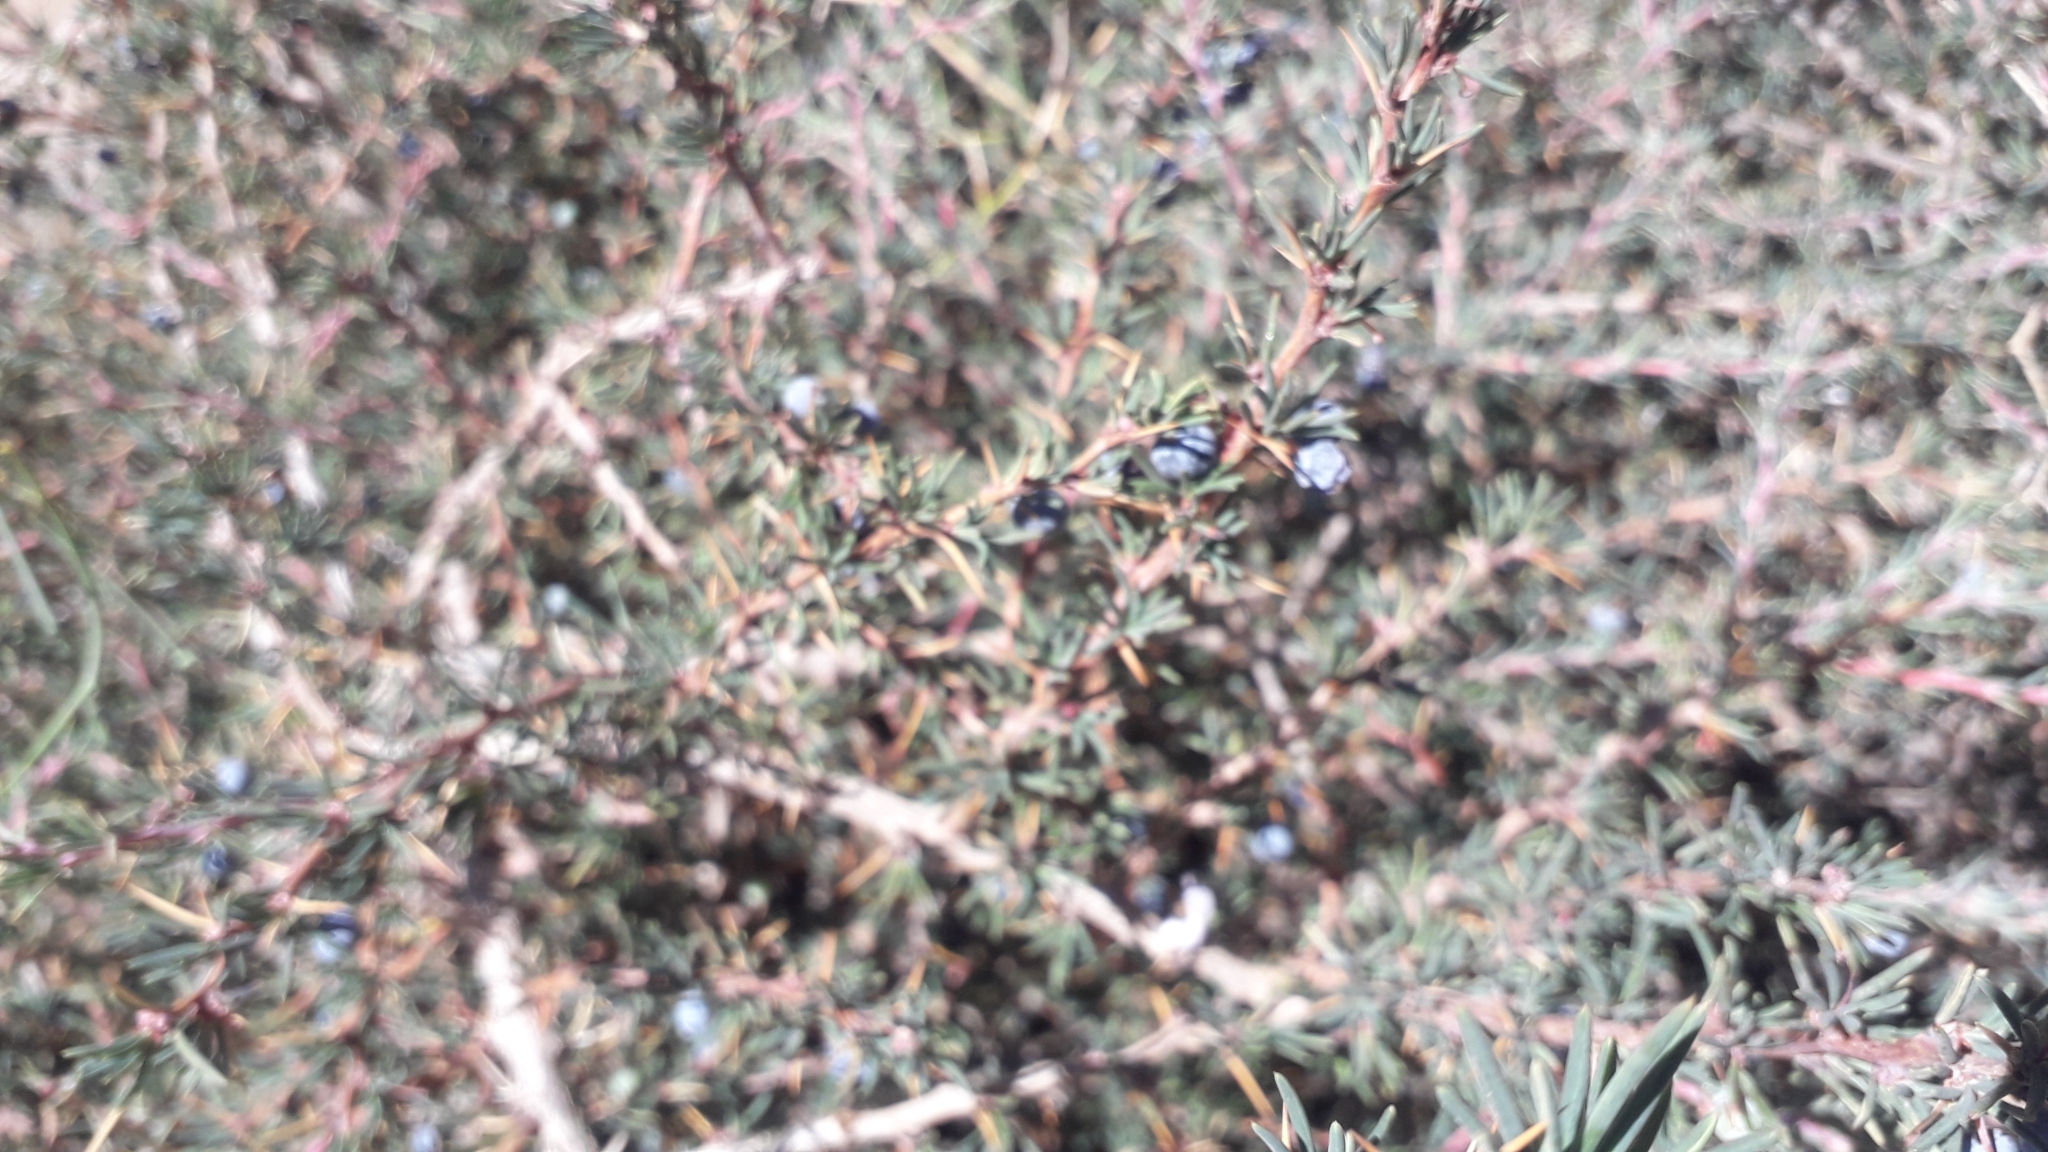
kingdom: Plantae
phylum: Tracheophyta
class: Magnoliopsida
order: Ranunculales
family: Berberidaceae
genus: Berberis
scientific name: Berberis empetrifolia
